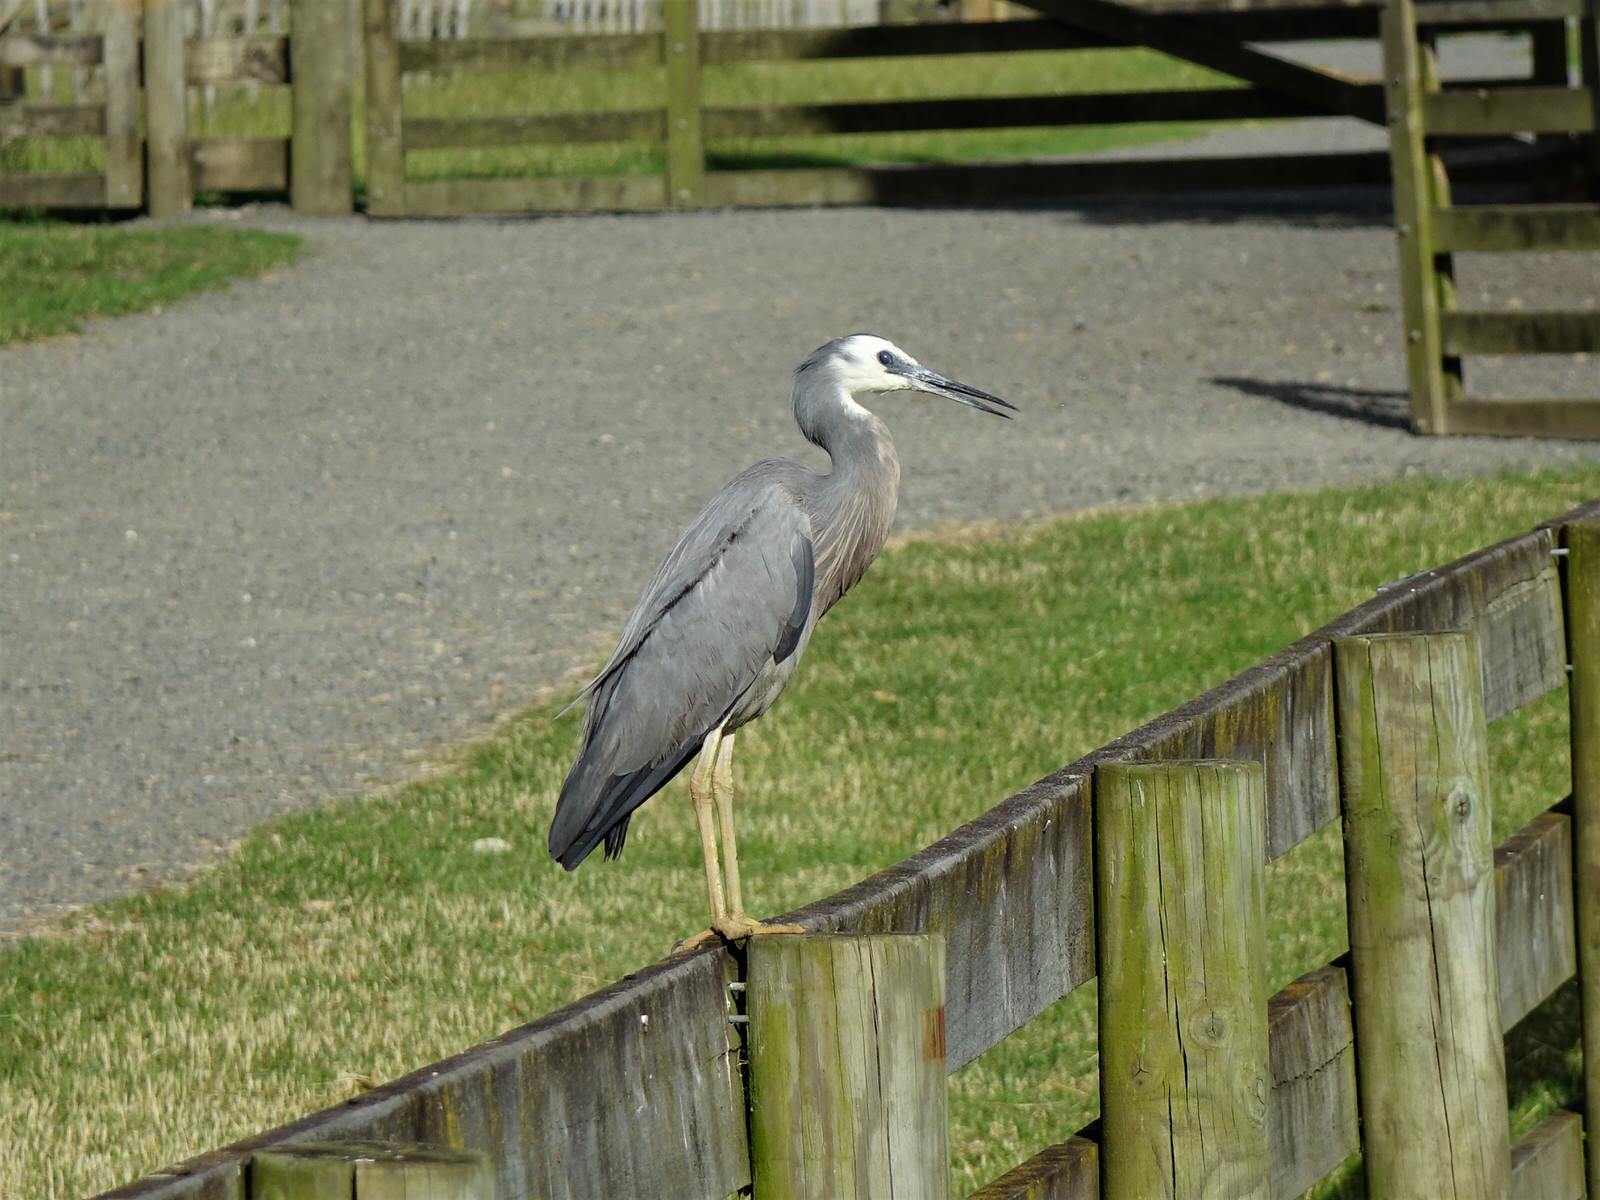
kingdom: Animalia
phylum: Chordata
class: Aves
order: Pelecaniformes
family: Ardeidae
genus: Egretta
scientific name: Egretta novaehollandiae
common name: White-faced heron
